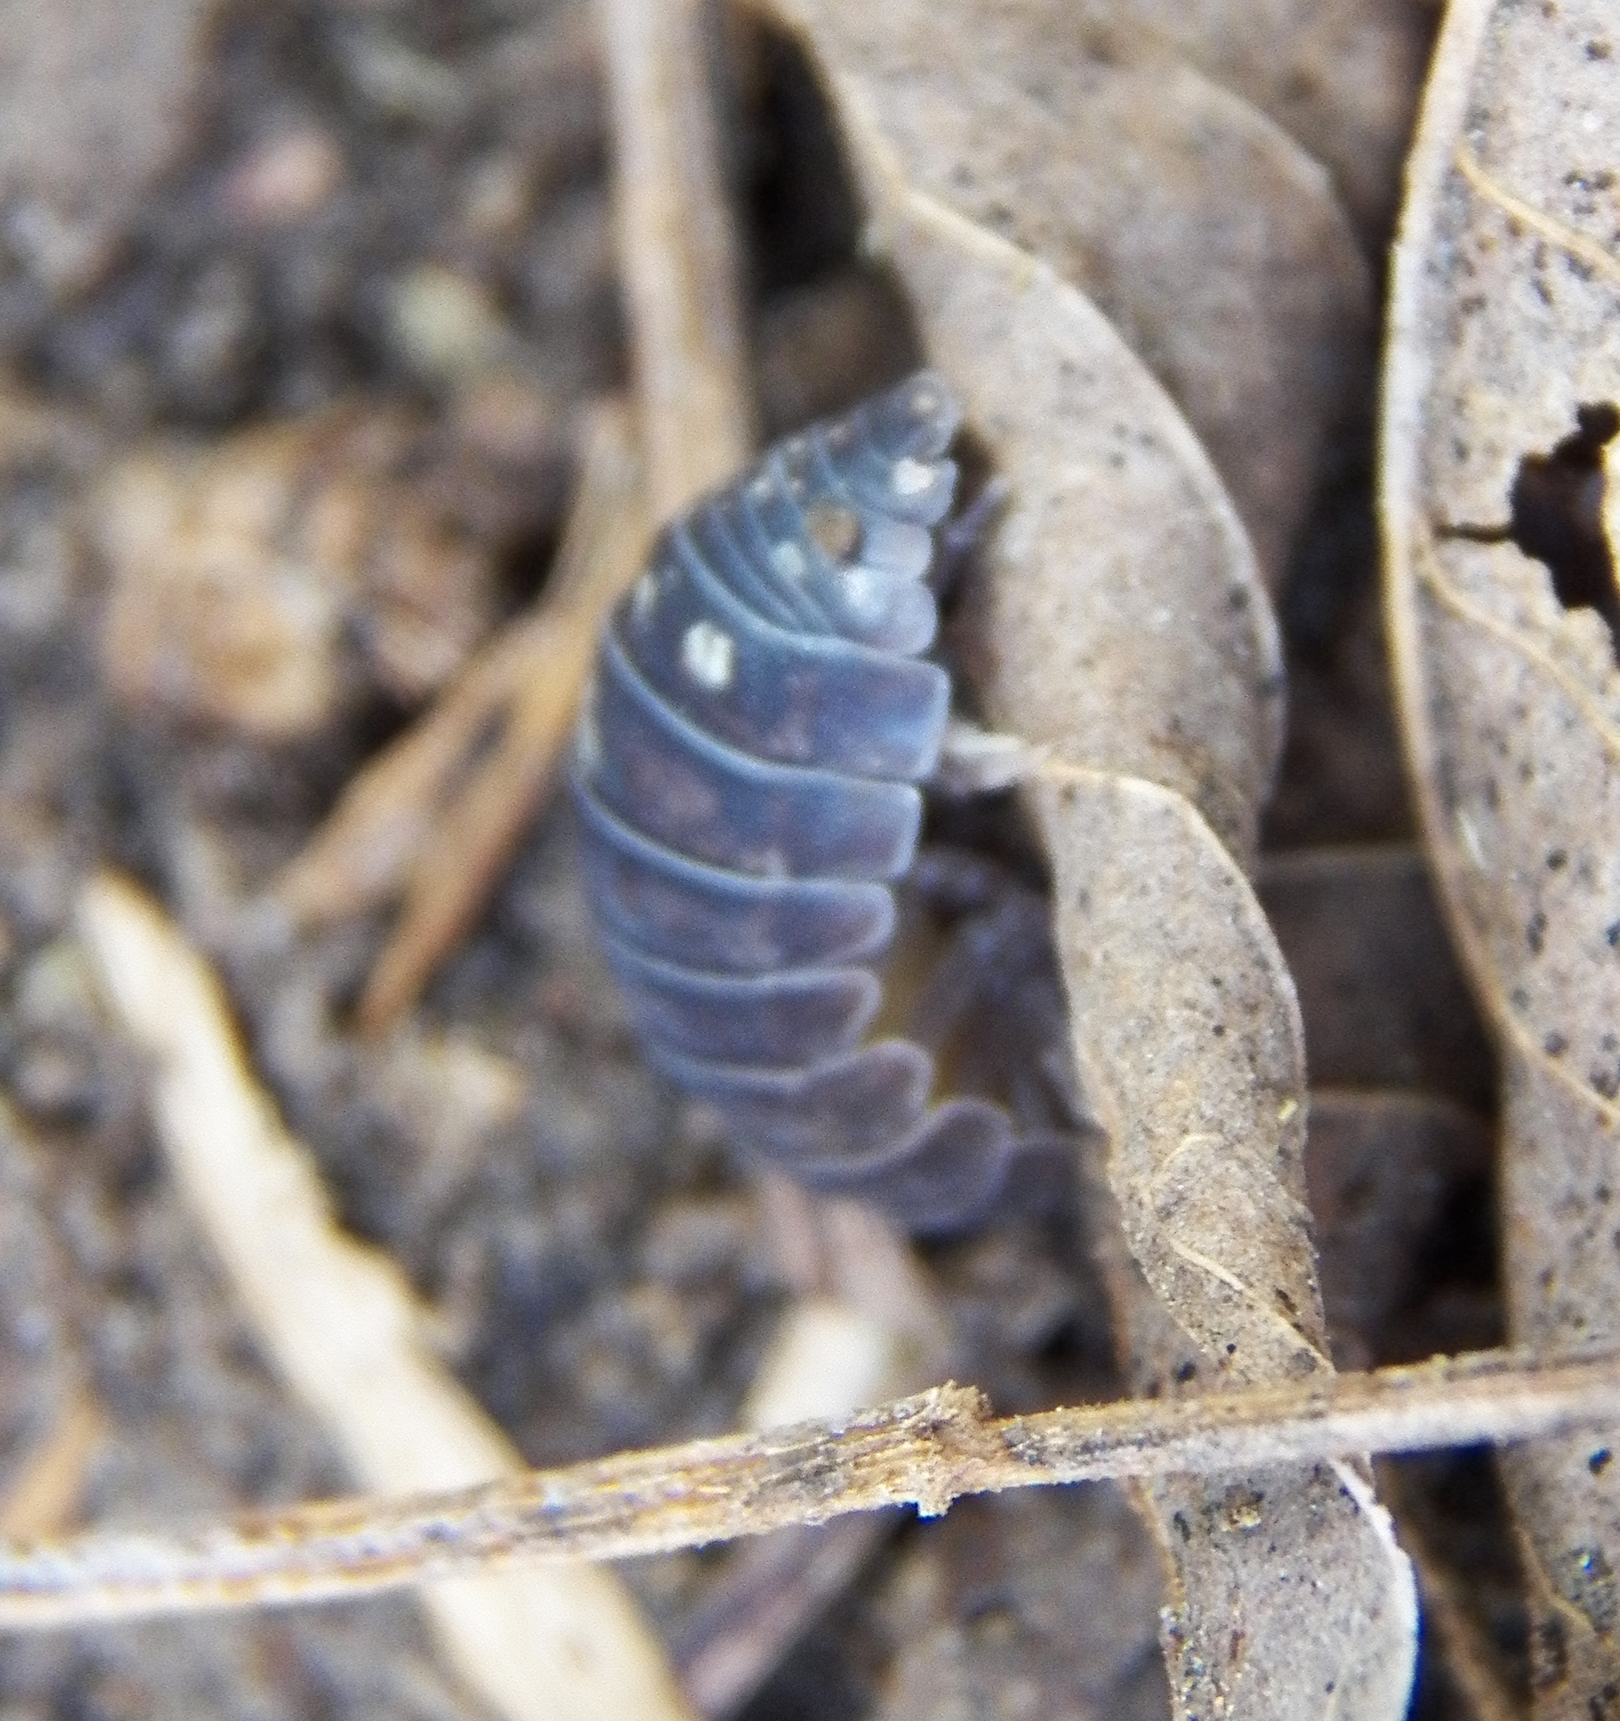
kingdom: Animalia
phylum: Arthropoda
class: Malacostraca
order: Isopoda
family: Armadillidiidae
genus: Armadillidium
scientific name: Armadillidium vulgare
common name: Common pill woodlouse
